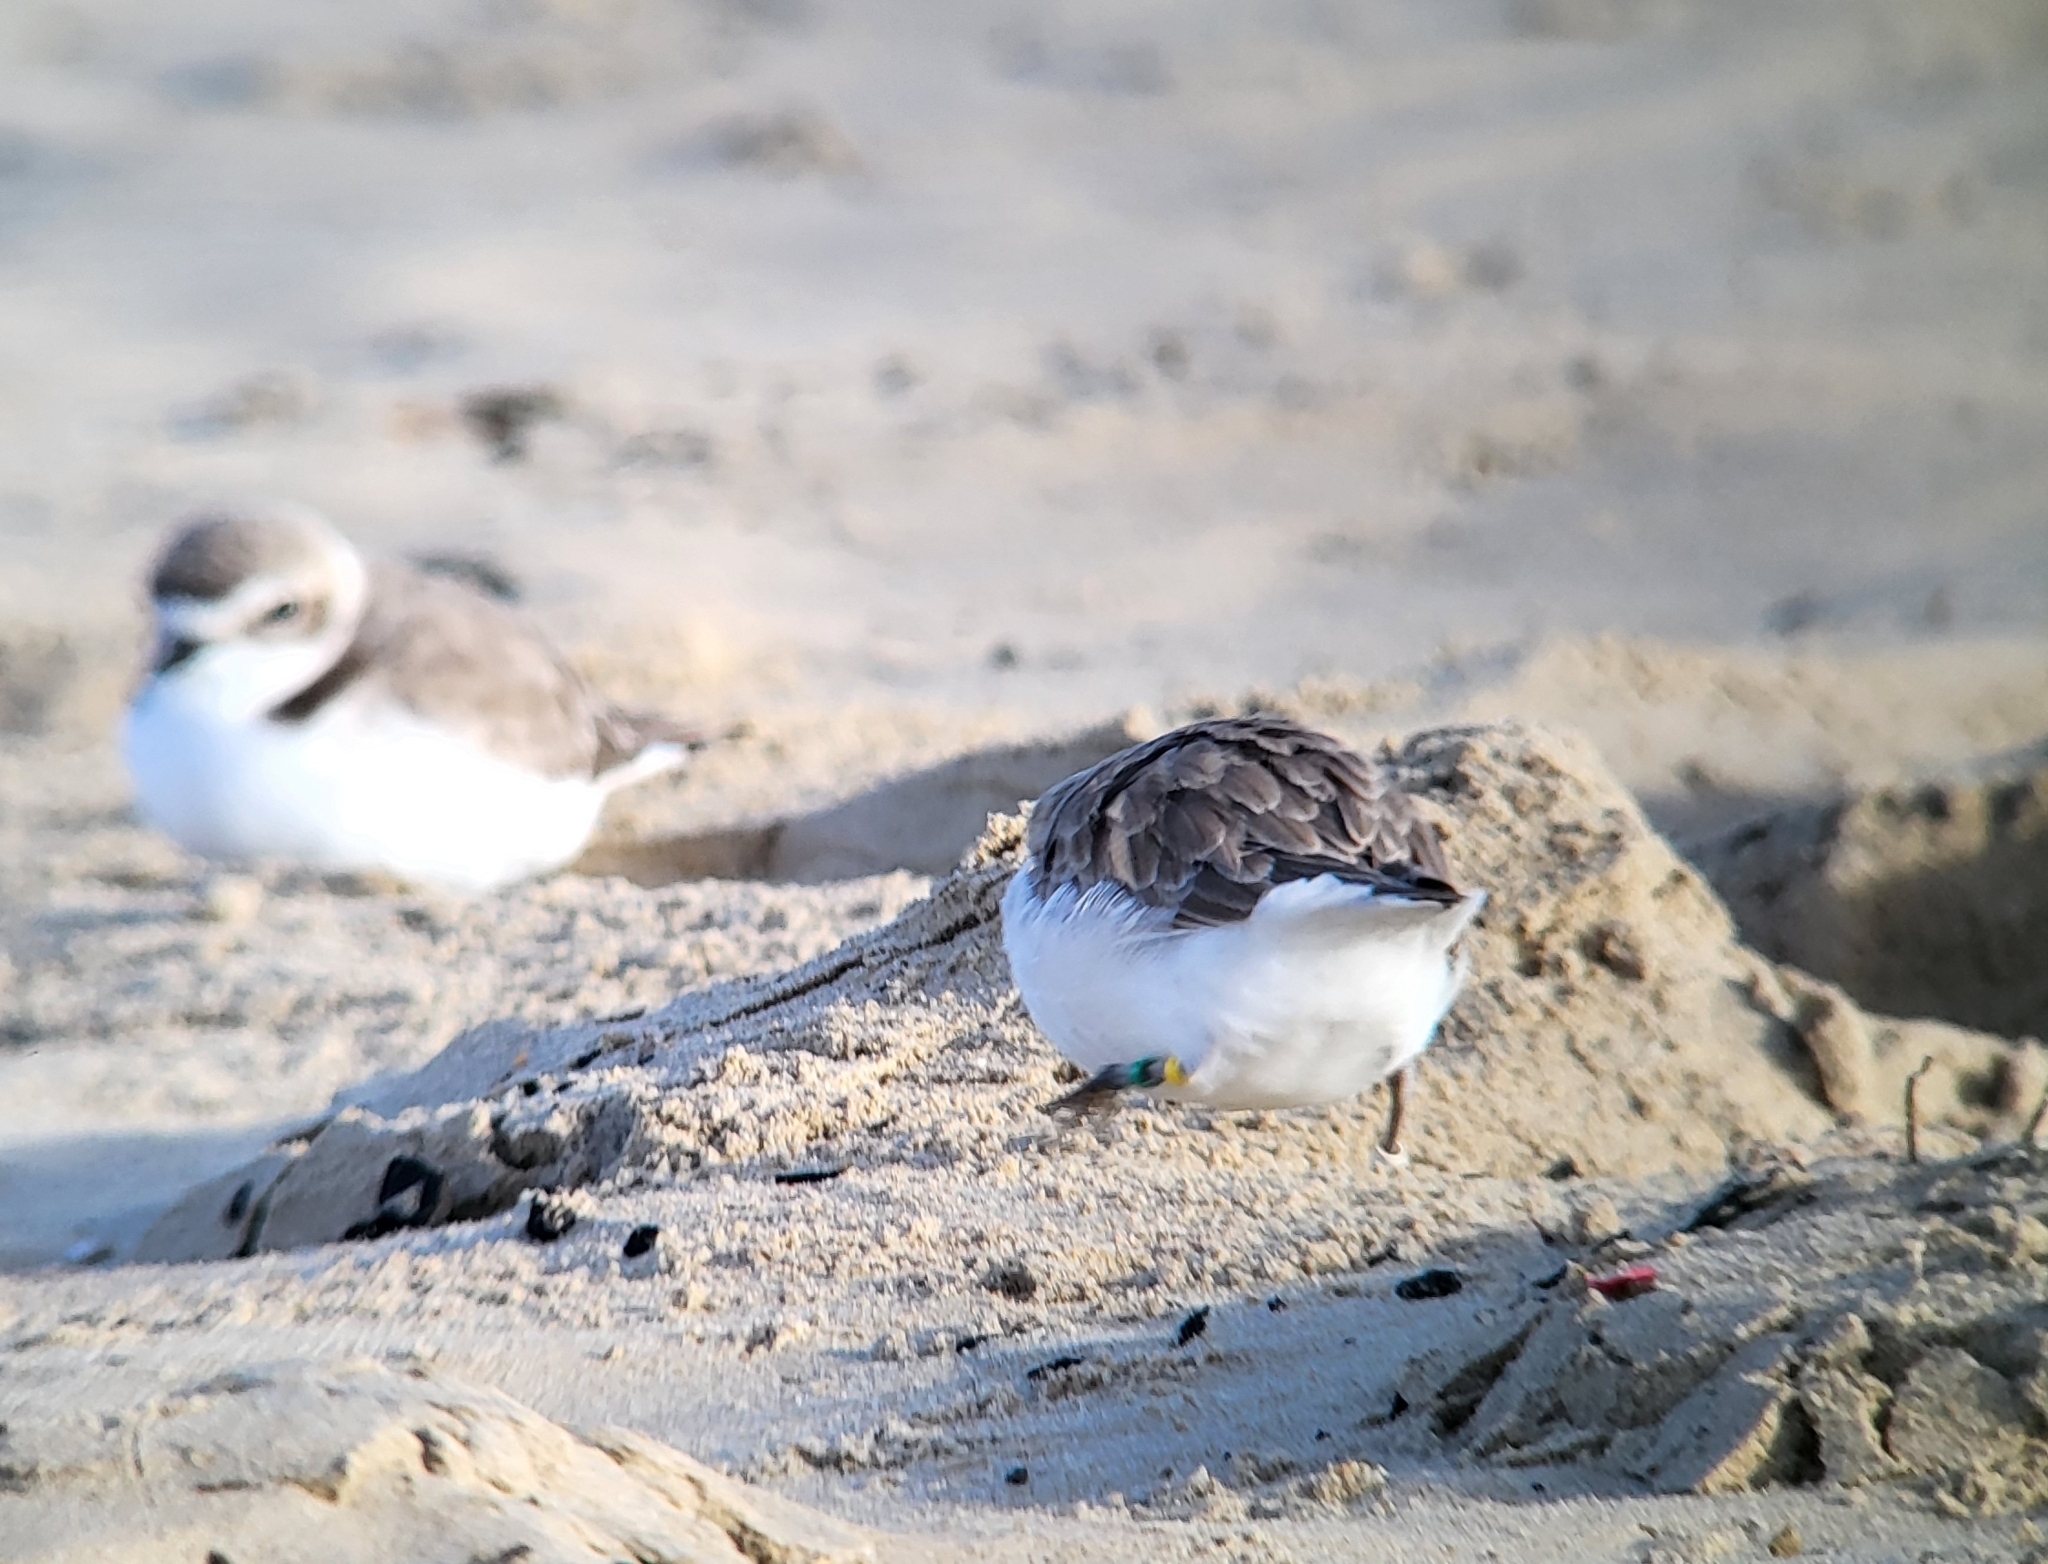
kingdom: Animalia
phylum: Chordata
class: Aves
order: Charadriiformes
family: Charadriidae
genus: Anarhynchus
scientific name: Anarhynchus
